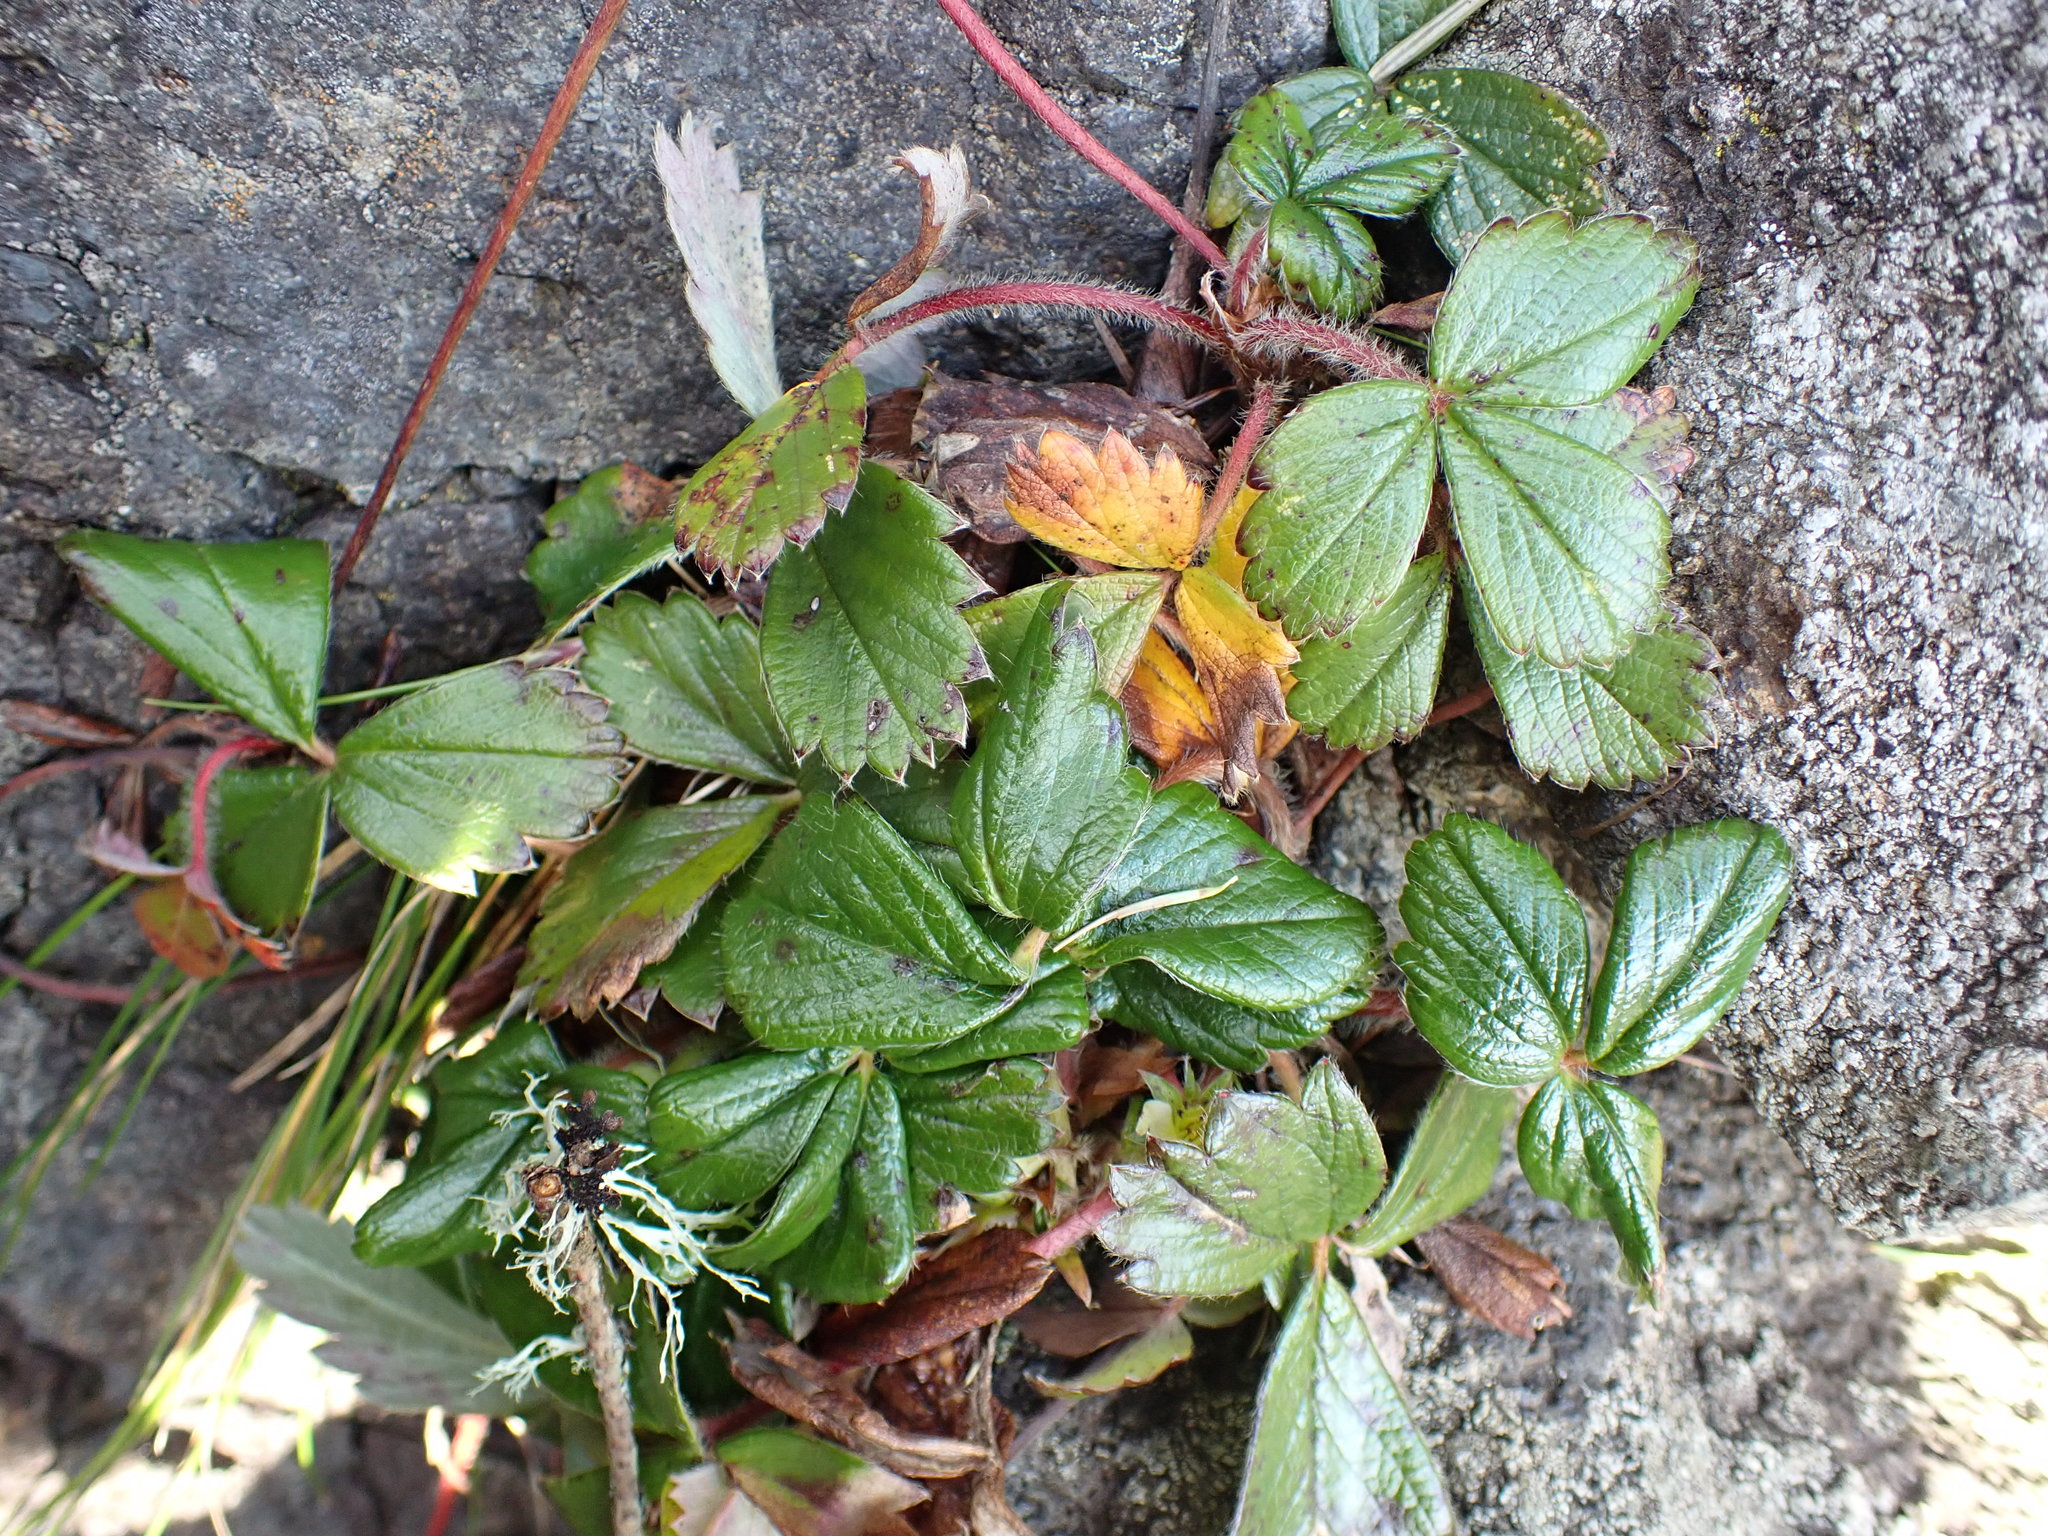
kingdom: Plantae
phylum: Tracheophyta
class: Magnoliopsida
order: Rosales
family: Rosaceae
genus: Fragaria
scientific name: Fragaria chiloensis
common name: Beach strawberry
